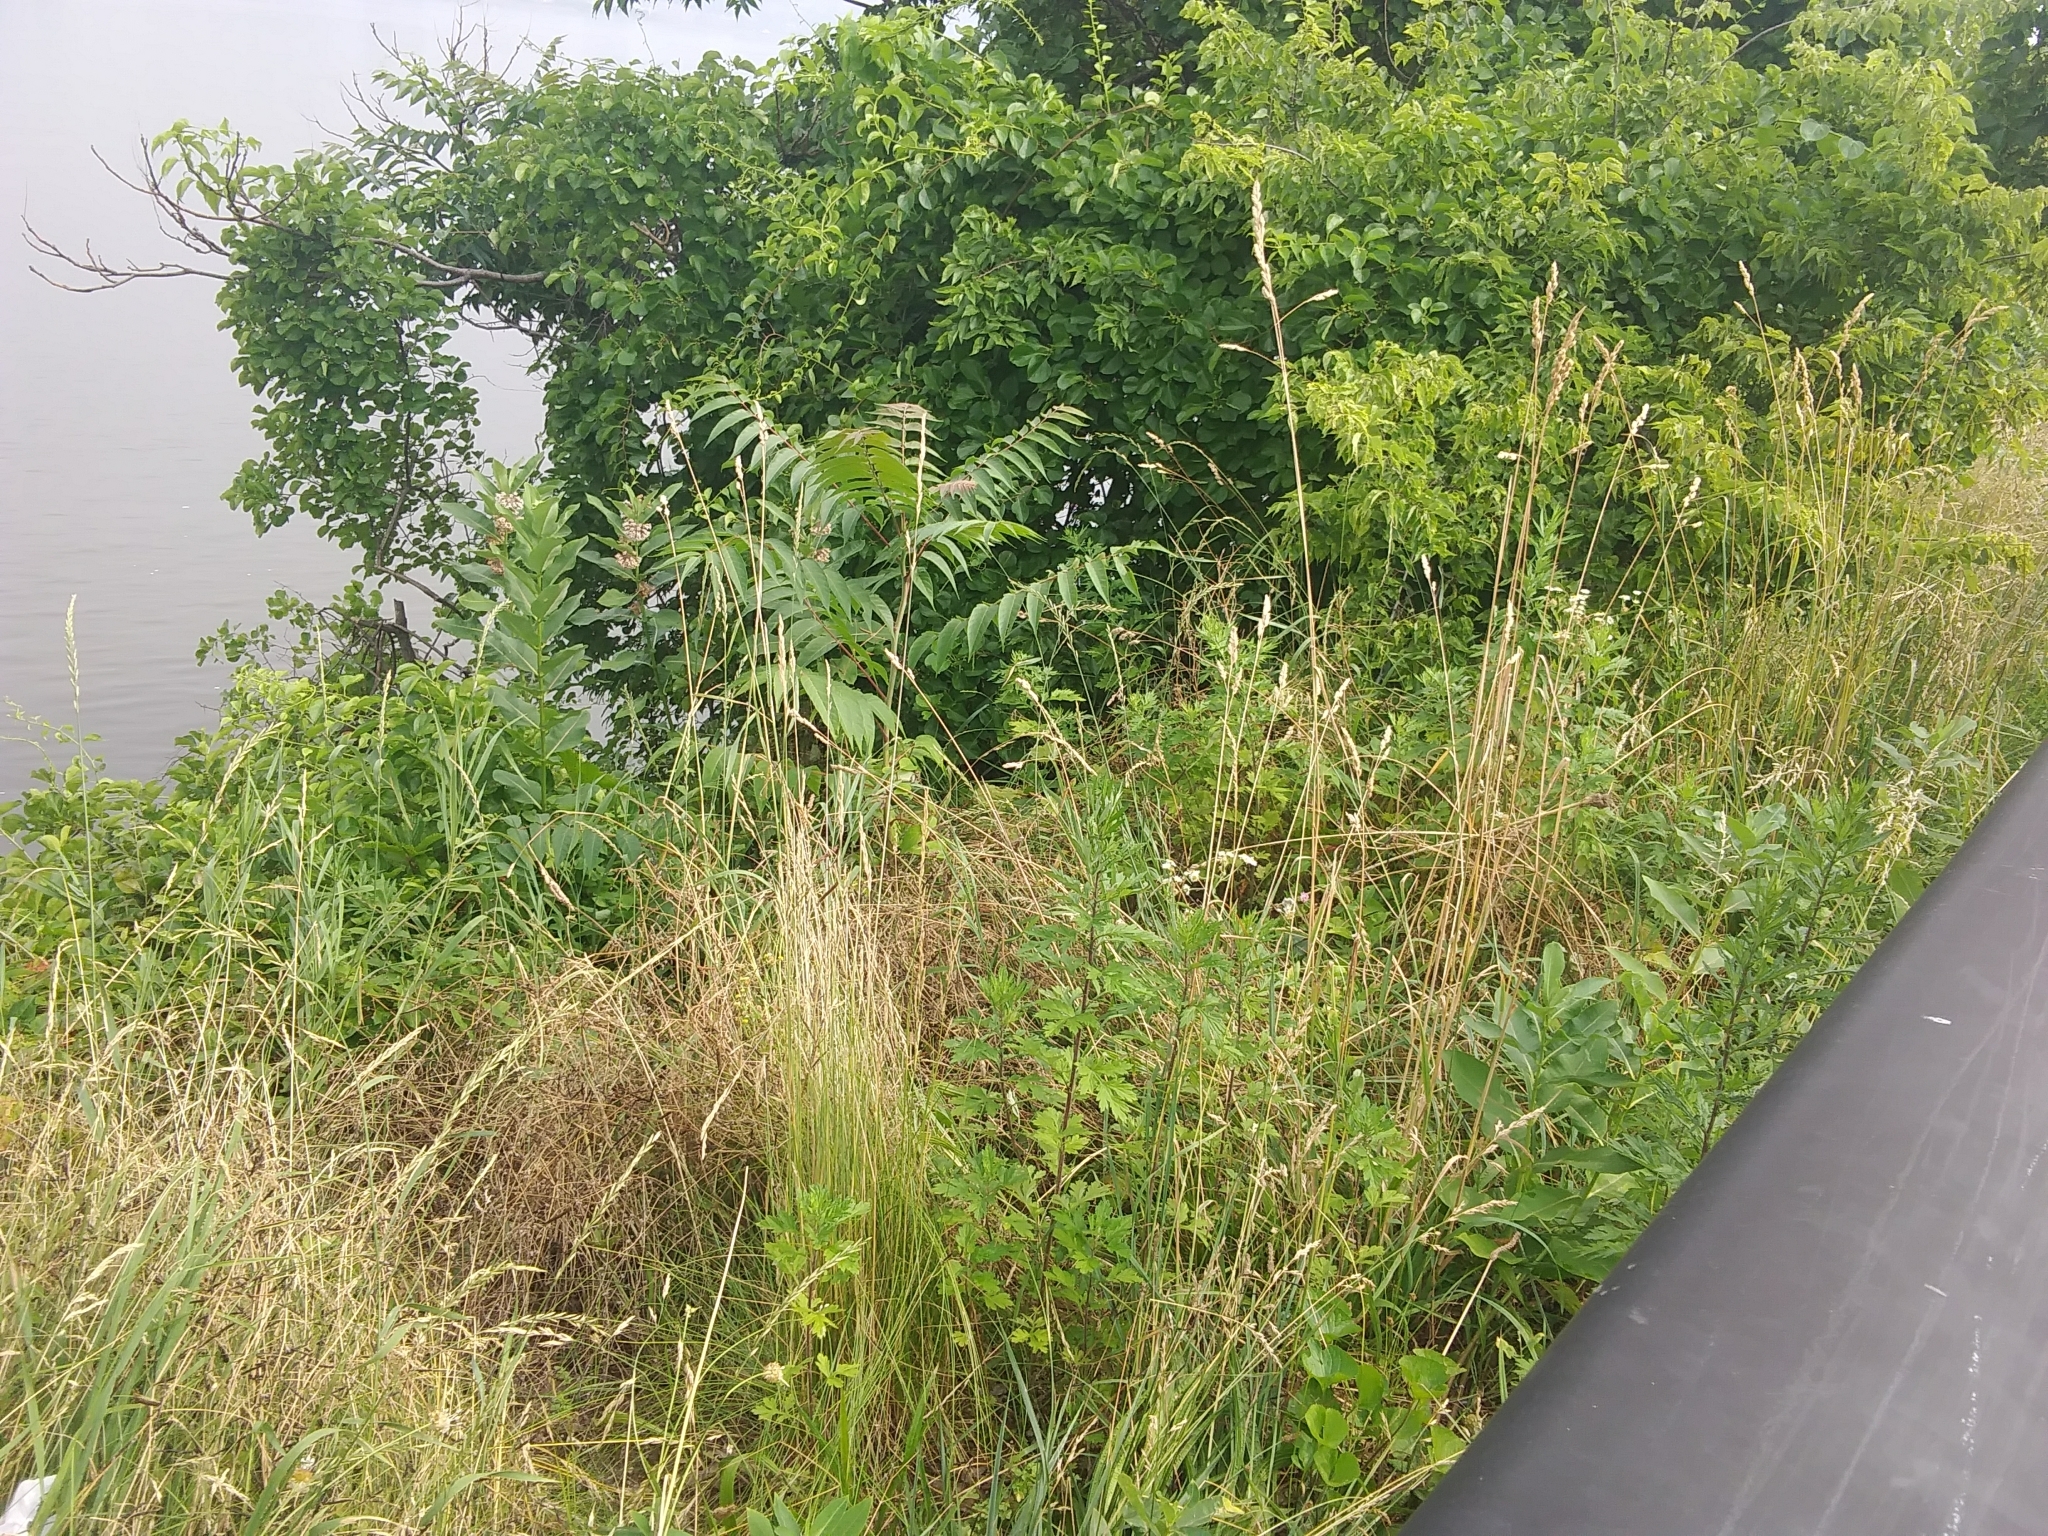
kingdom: Plantae
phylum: Tracheophyta
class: Magnoliopsida
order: Sapindales
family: Simaroubaceae
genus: Ailanthus
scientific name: Ailanthus altissima
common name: Tree-of-heaven
